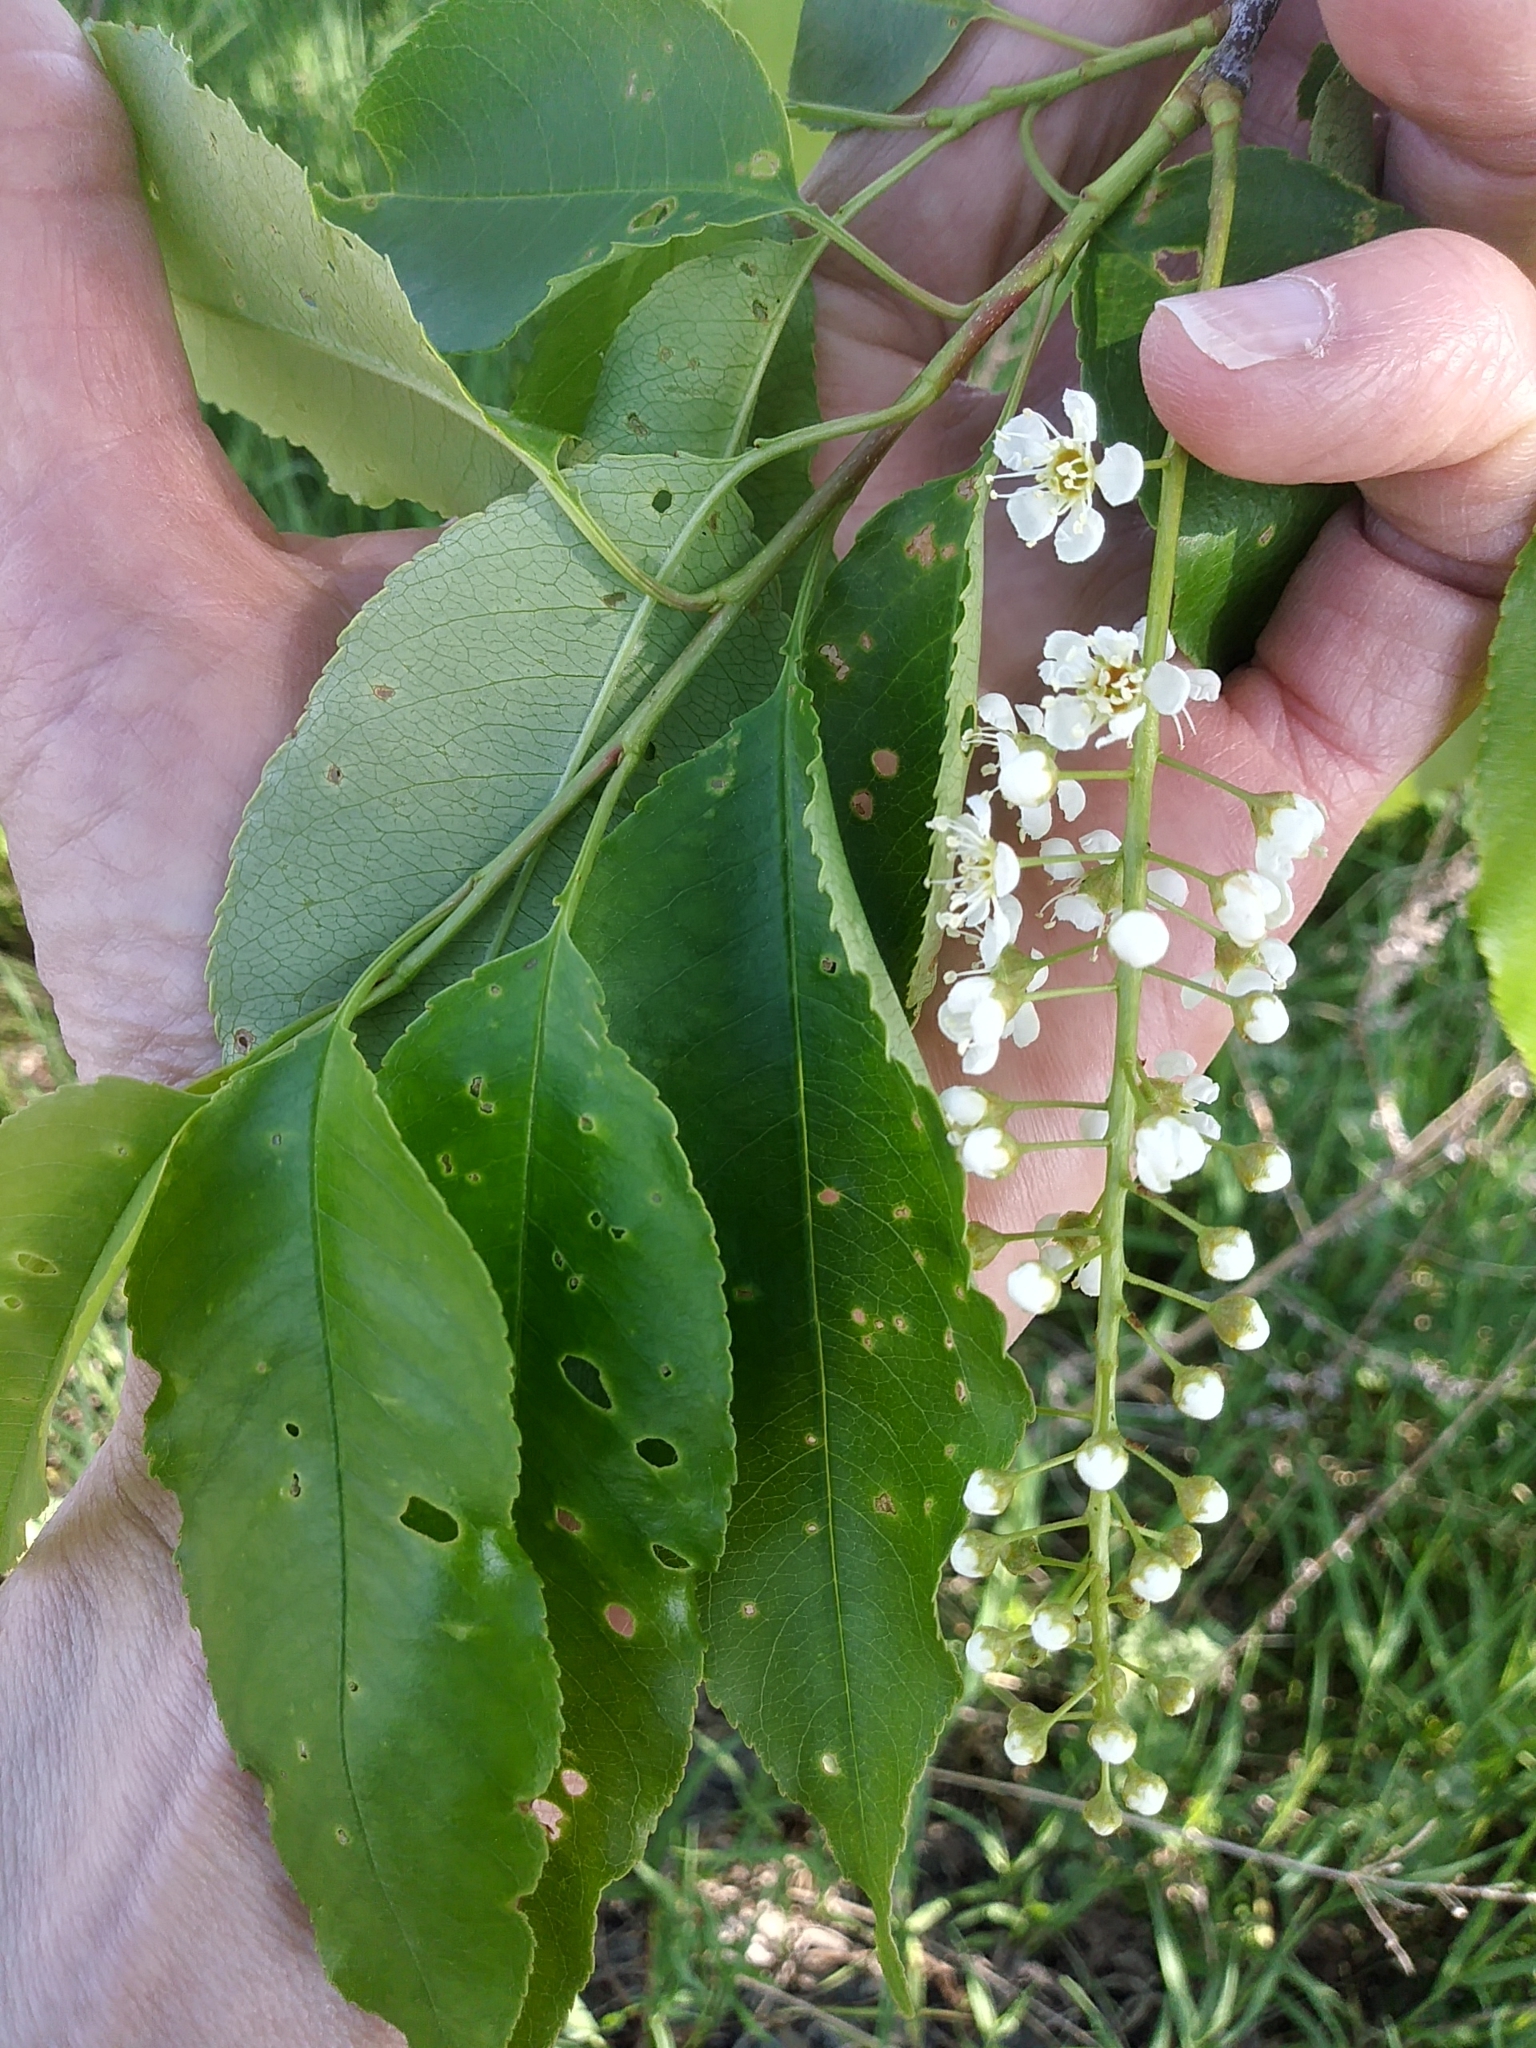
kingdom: Plantae
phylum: Tracheophyta
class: Magnoliopsida
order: Rosales
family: Rosaceae
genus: Prunus
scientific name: Prunus serotina
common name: Black cherry
